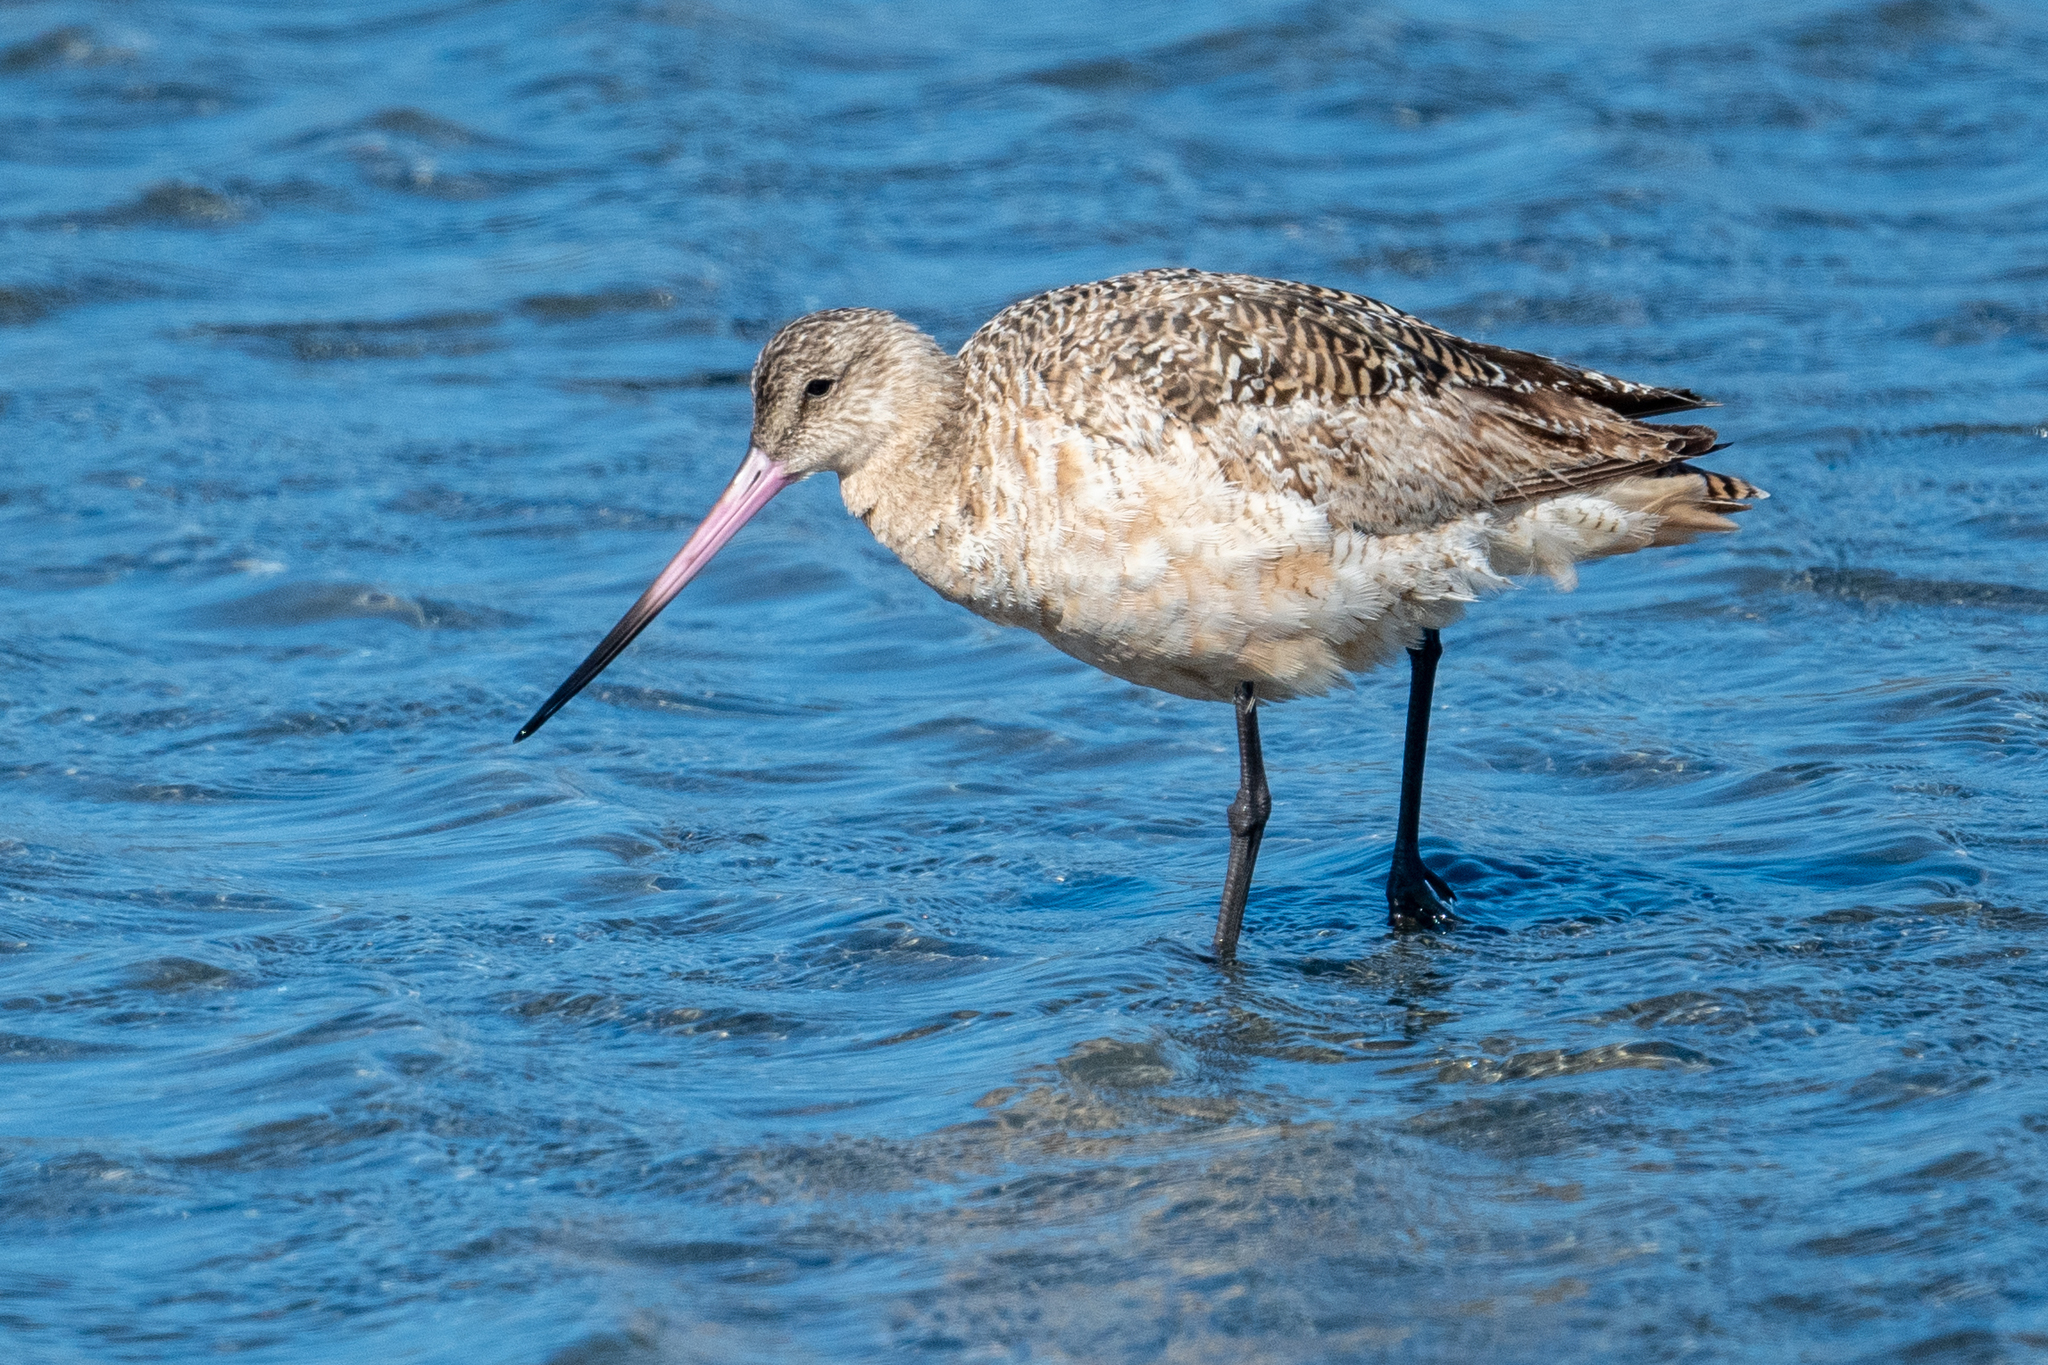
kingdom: Animalia
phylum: Chordata
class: Aves
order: Charadriiformes
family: Scolopacidae
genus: Limosa
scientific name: Limosa fedoa
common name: Marbled godwit
